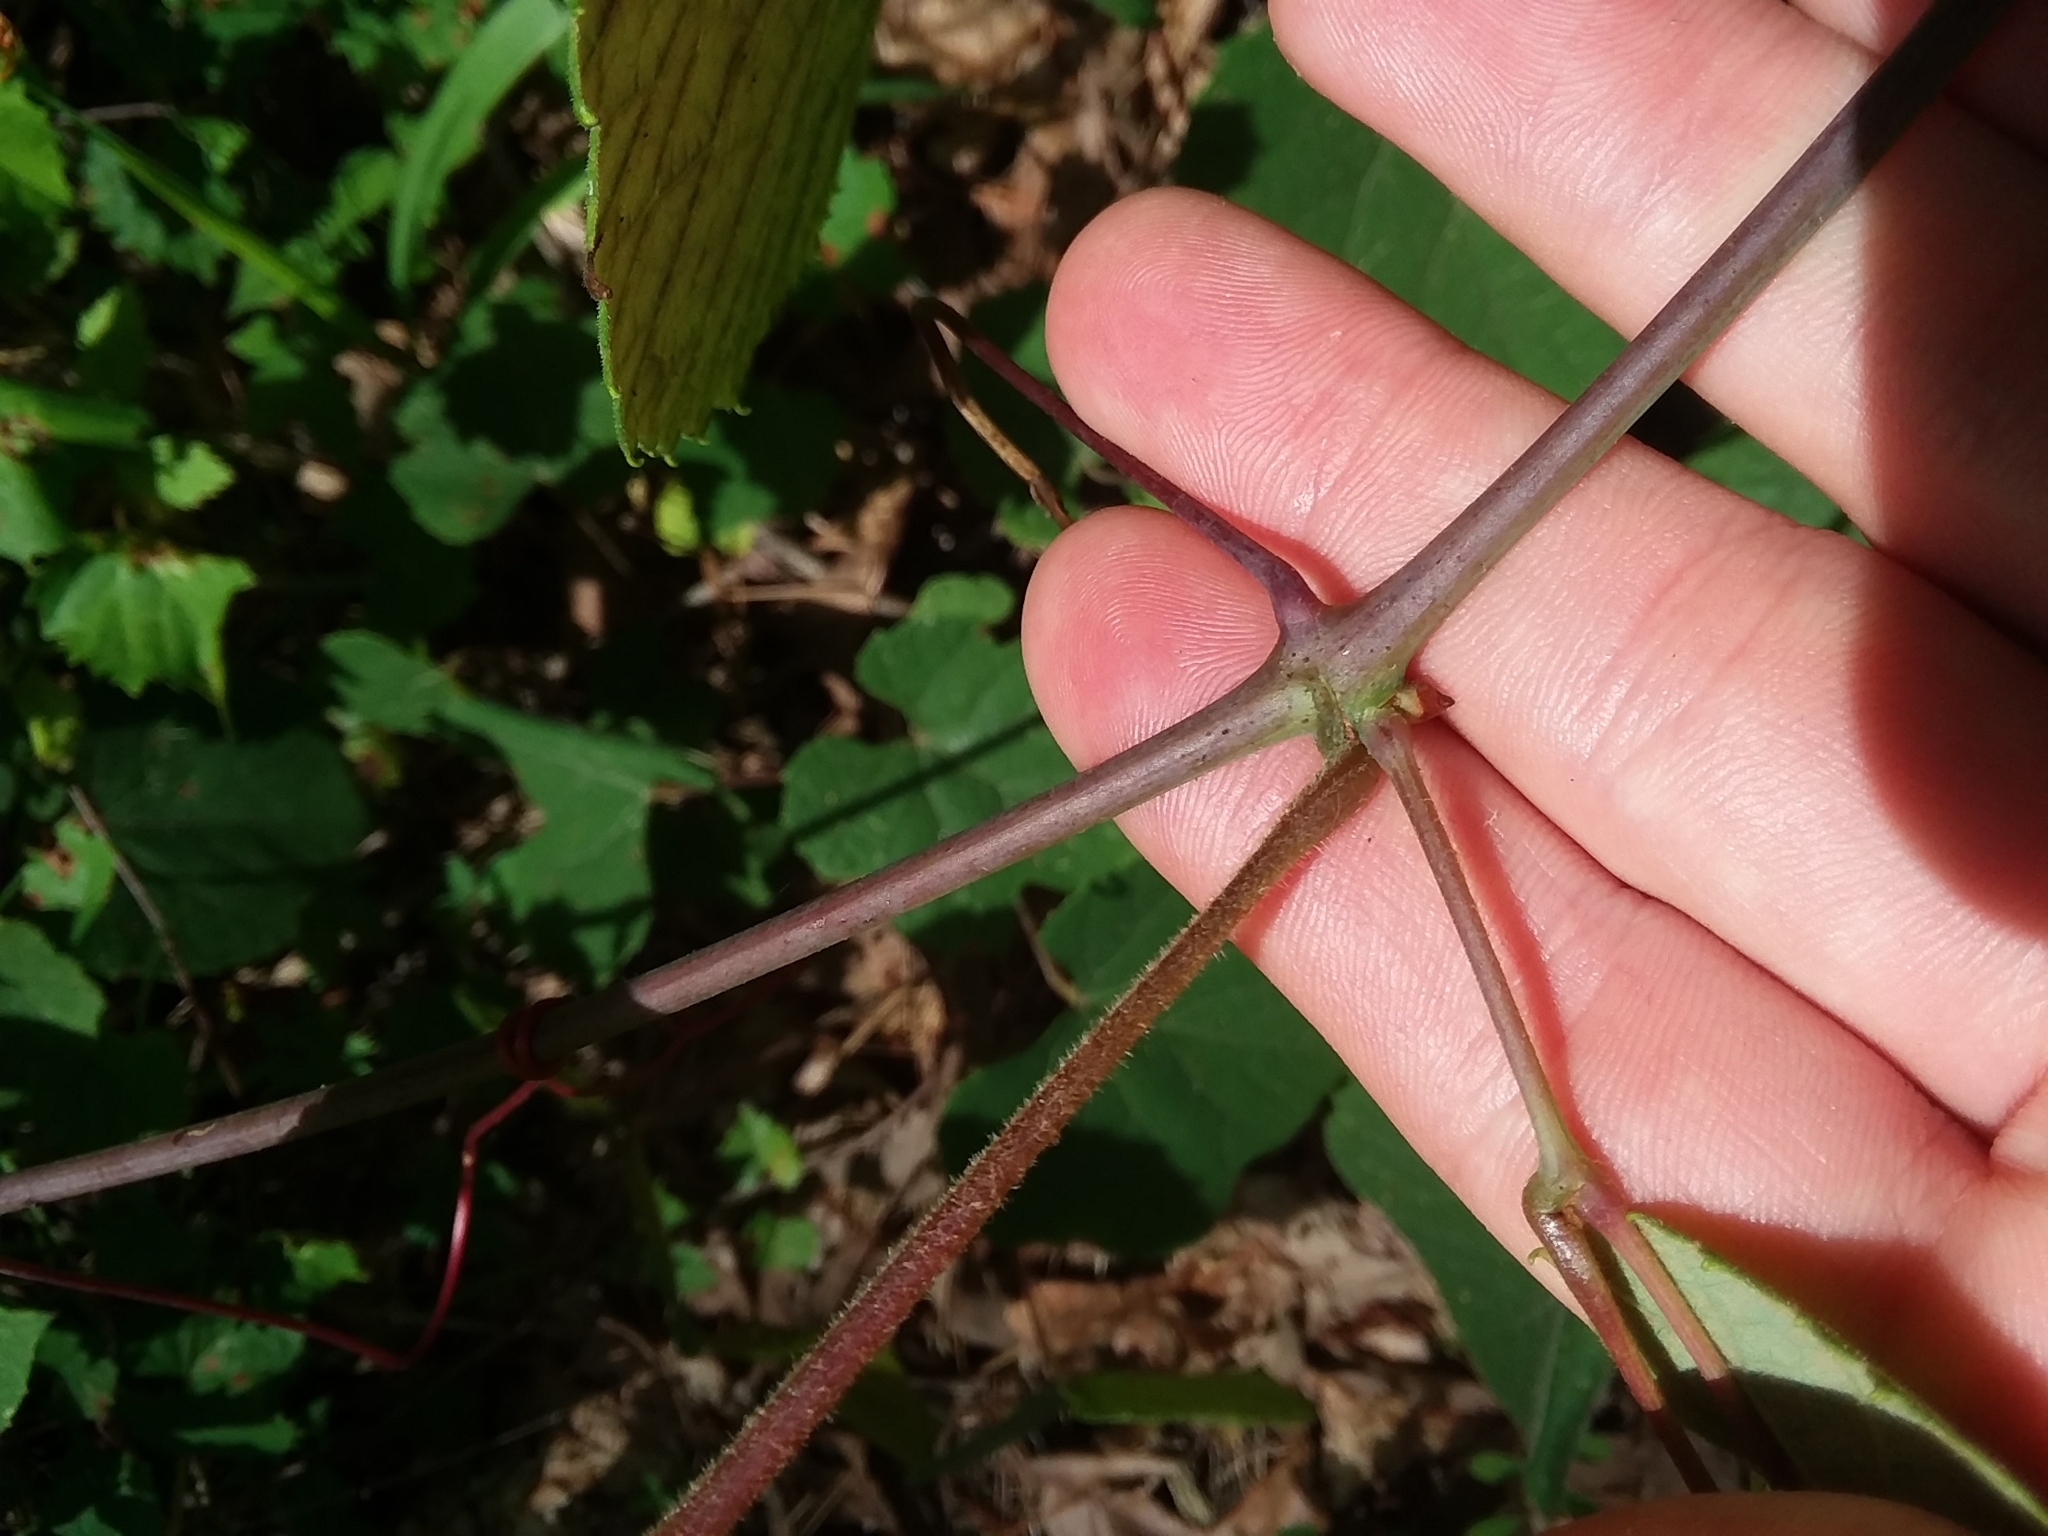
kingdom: Plantae
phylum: Tracheophyta
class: Magnoliopsida
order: Vitales
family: Vitaceae
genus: Vitis
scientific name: Vitis aestivalis
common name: Pigeon grape
